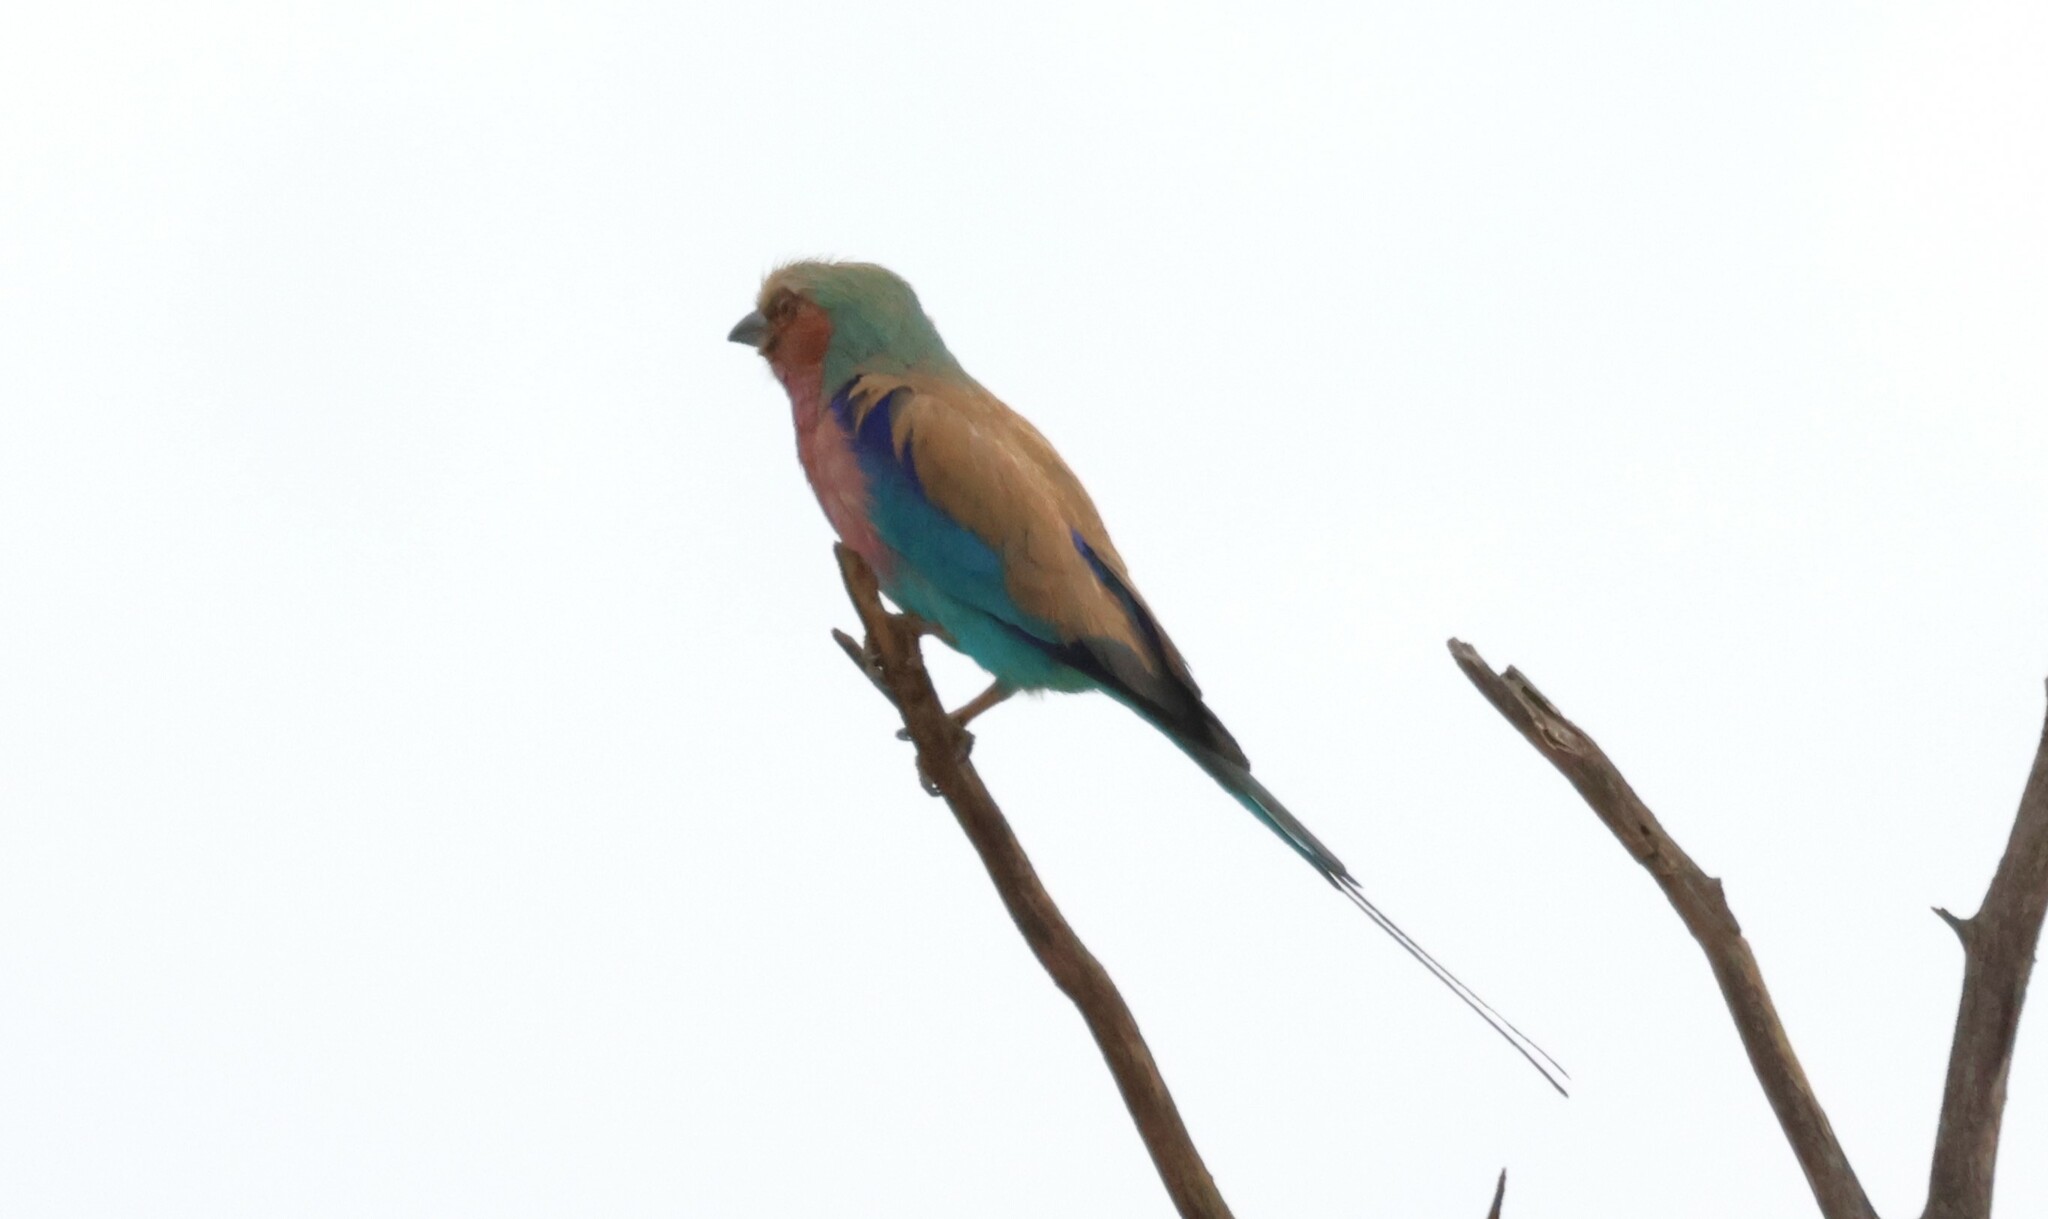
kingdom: Animalia
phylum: Chordata
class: Aves
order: Coraciiformes
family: Coraciidae
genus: Coracias
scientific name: Coracias caudatus
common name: Lilac-breasted roller
